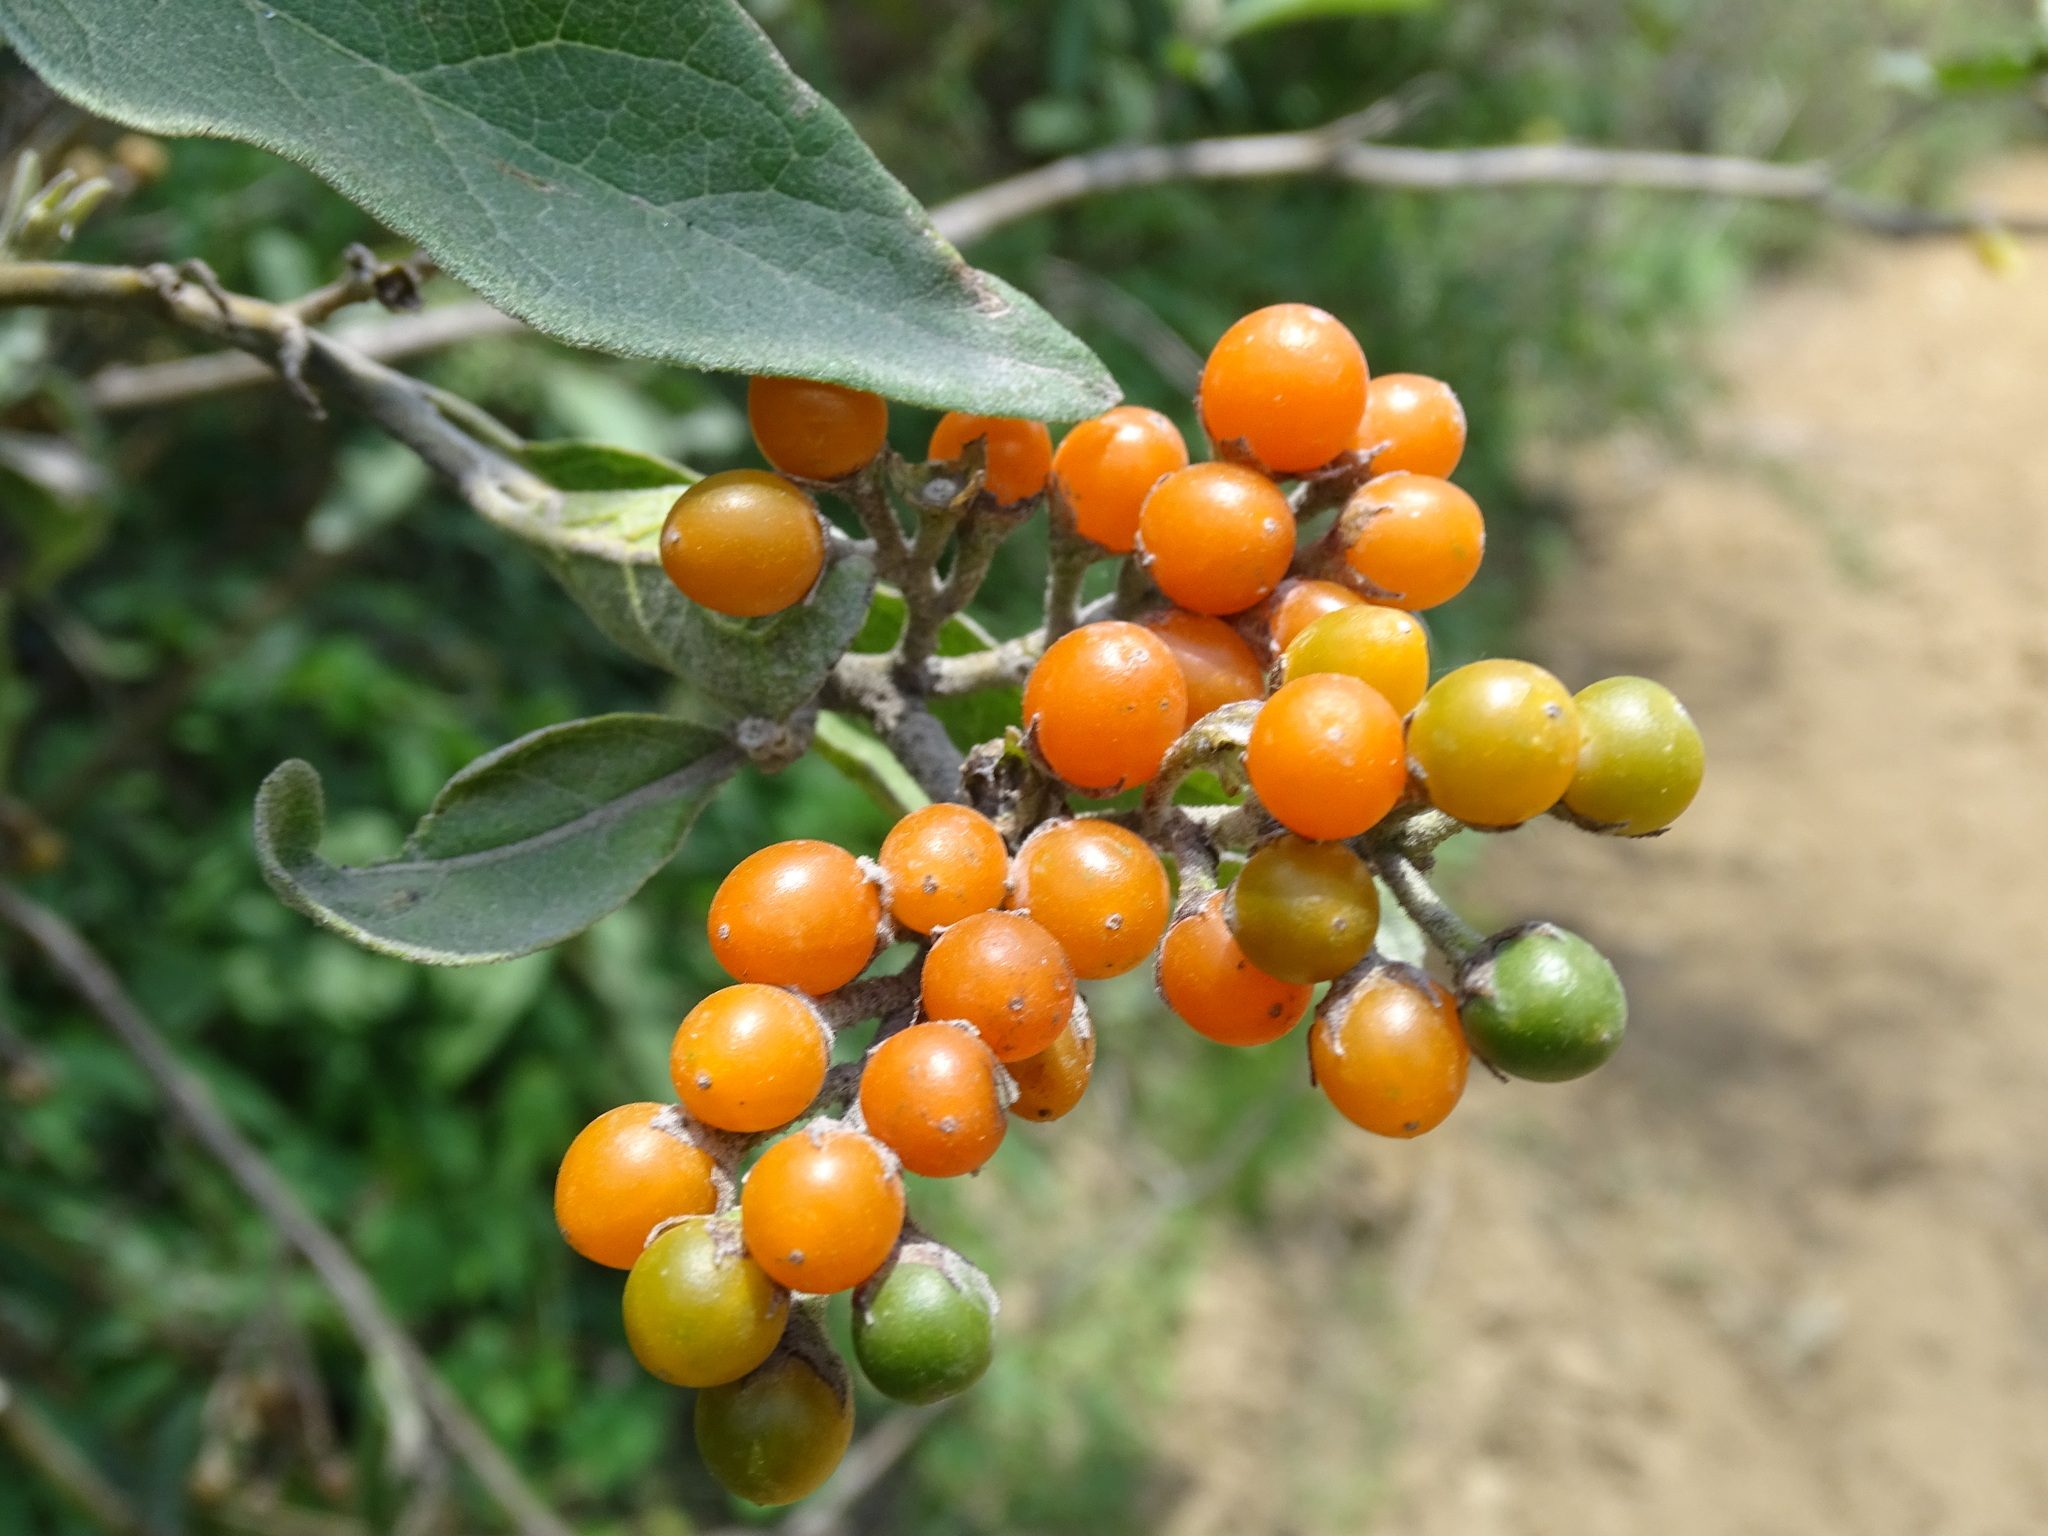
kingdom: Plantae
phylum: Tracheophyta
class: Magnoliopsida
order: Solanales
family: Solanaceae
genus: Solanum
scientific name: Solanum lanceolatum
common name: Orangeberry nightshade
